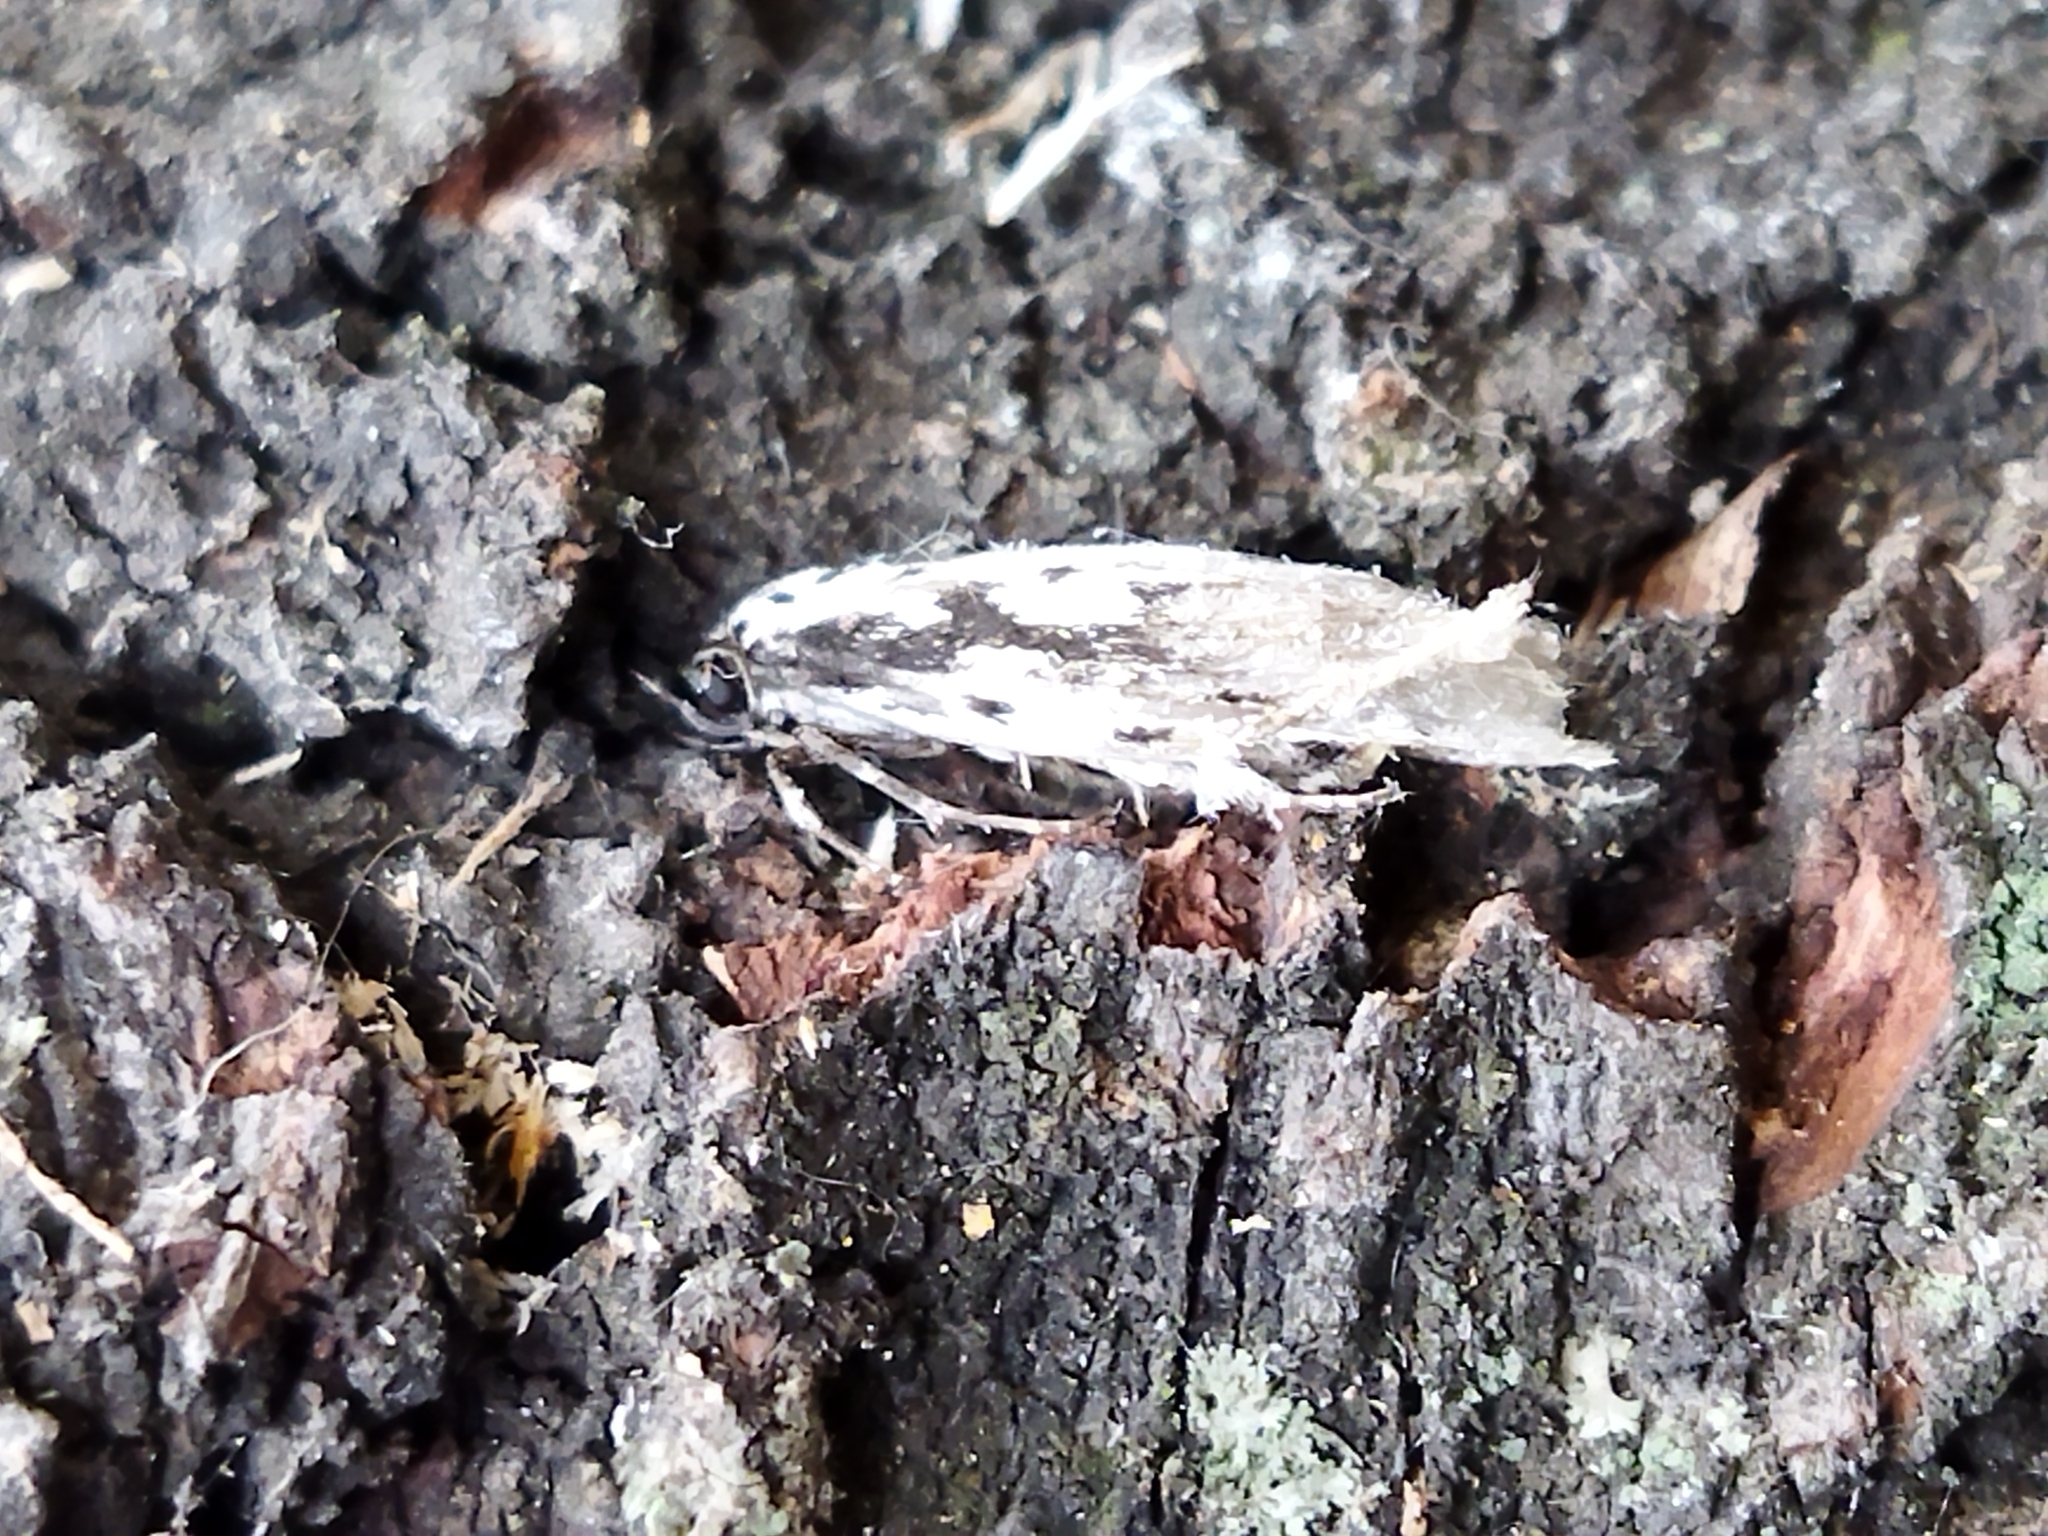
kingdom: Animalia
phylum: Arthropoda
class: Insecta
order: Lepidoptera
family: Ethmiidae
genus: Ethmia
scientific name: Ethmia fumidella
